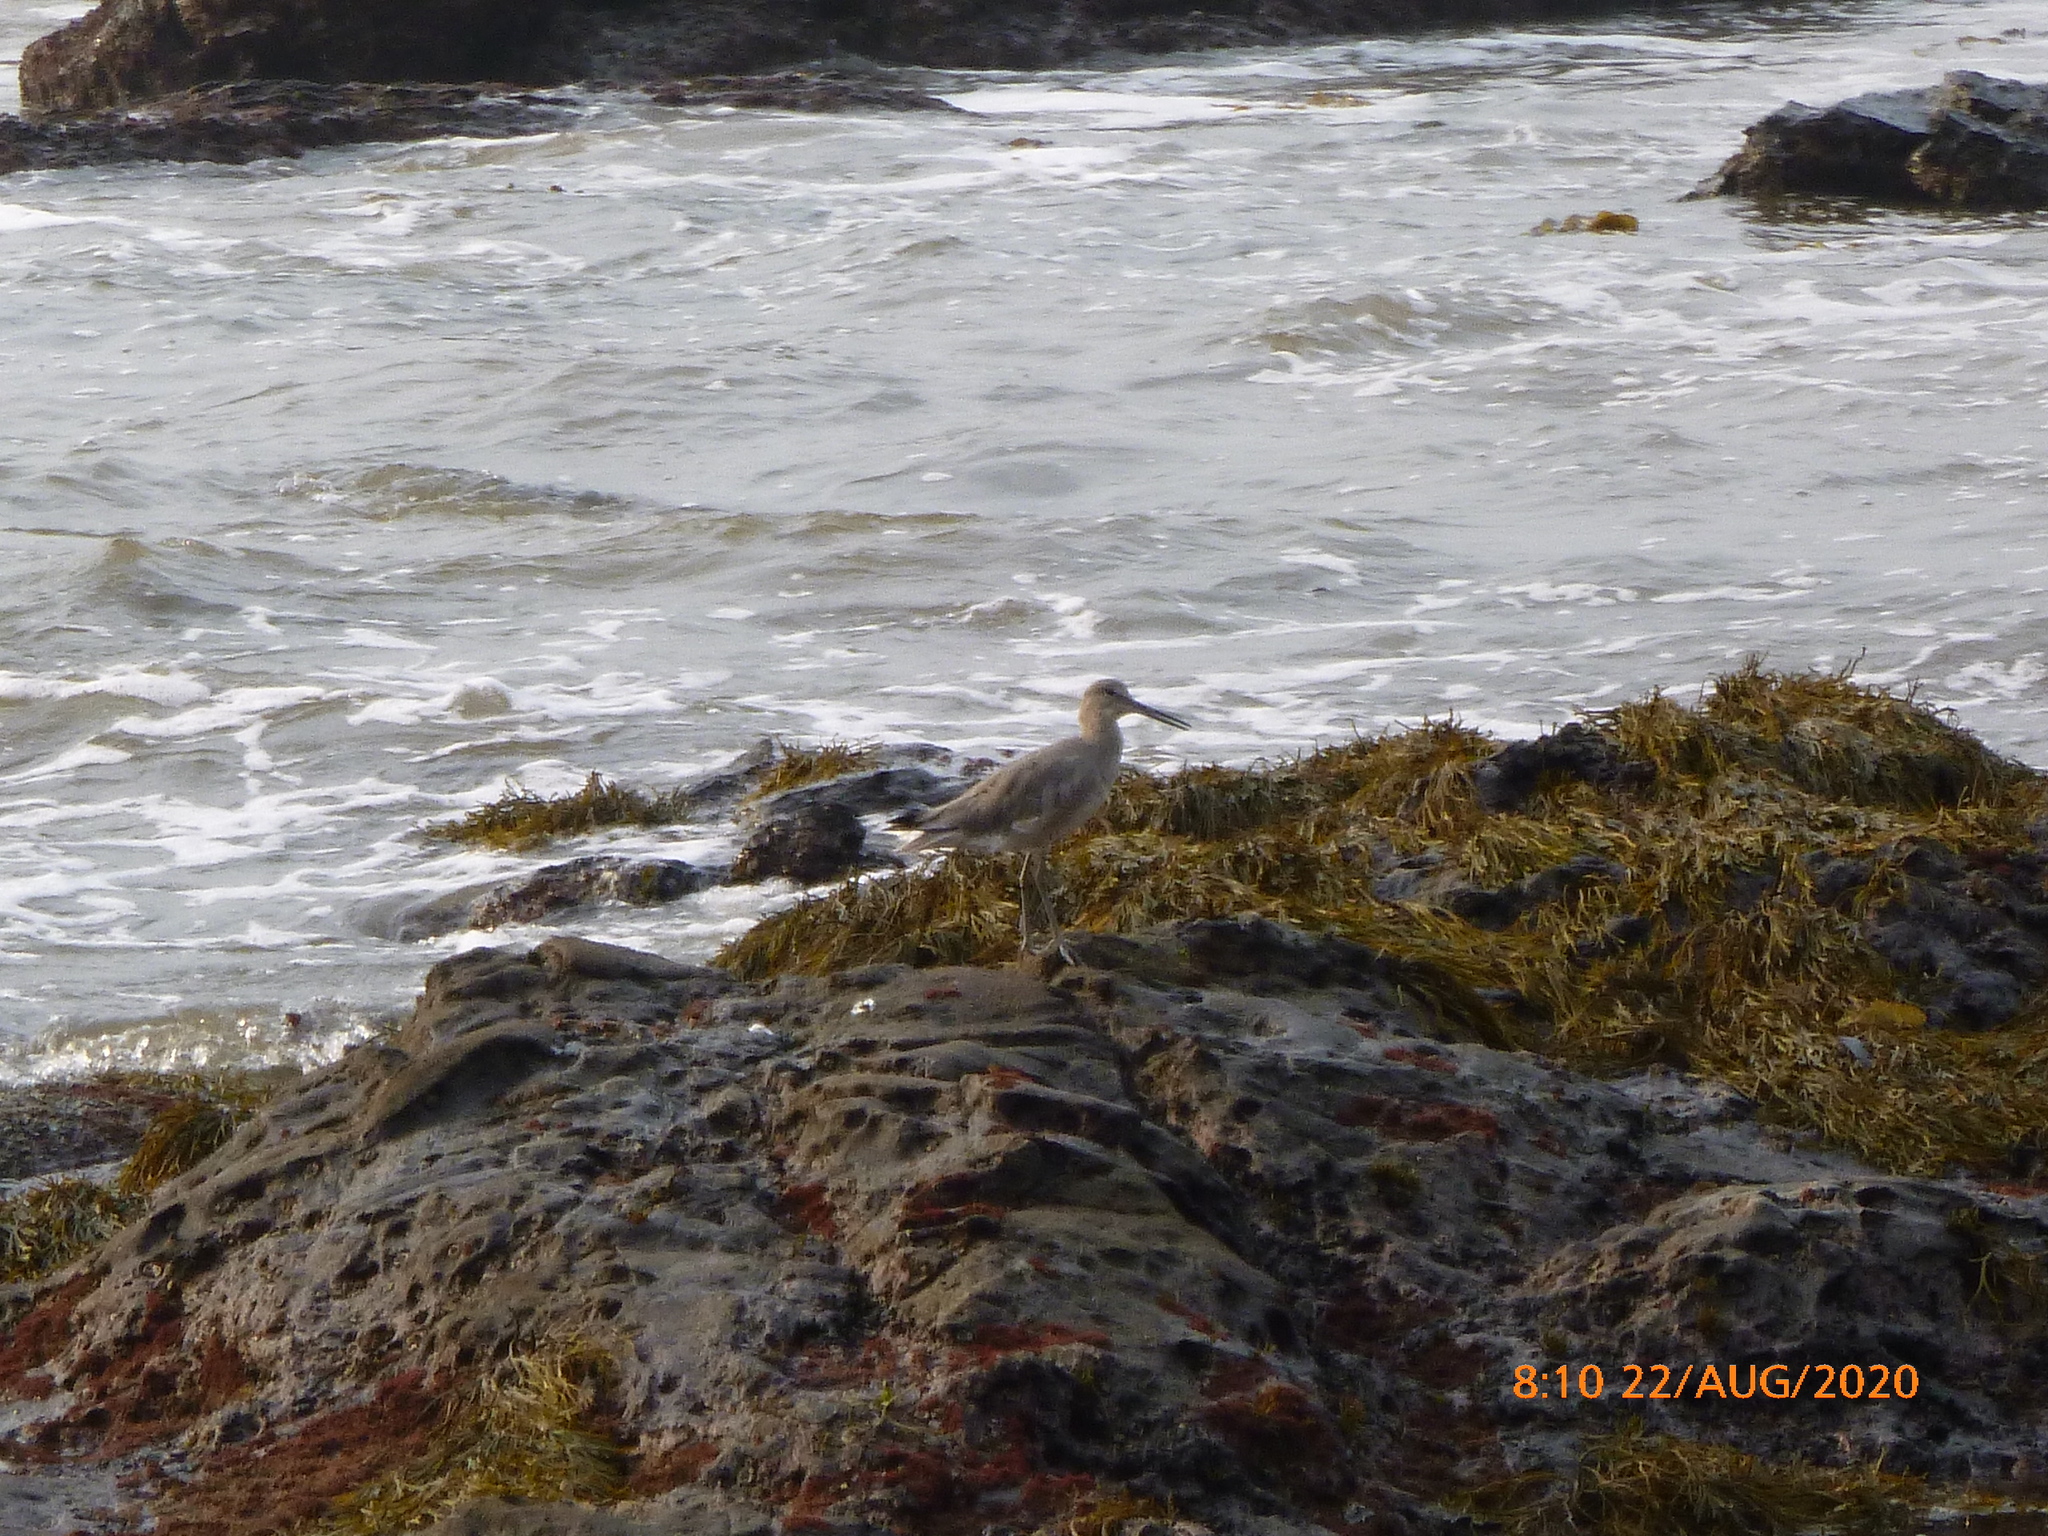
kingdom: Animalia
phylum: Chordata
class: Aves
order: Charadriiformes
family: Scolopacidae
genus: Tringa
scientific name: Tringa semipalmata
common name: Willet
